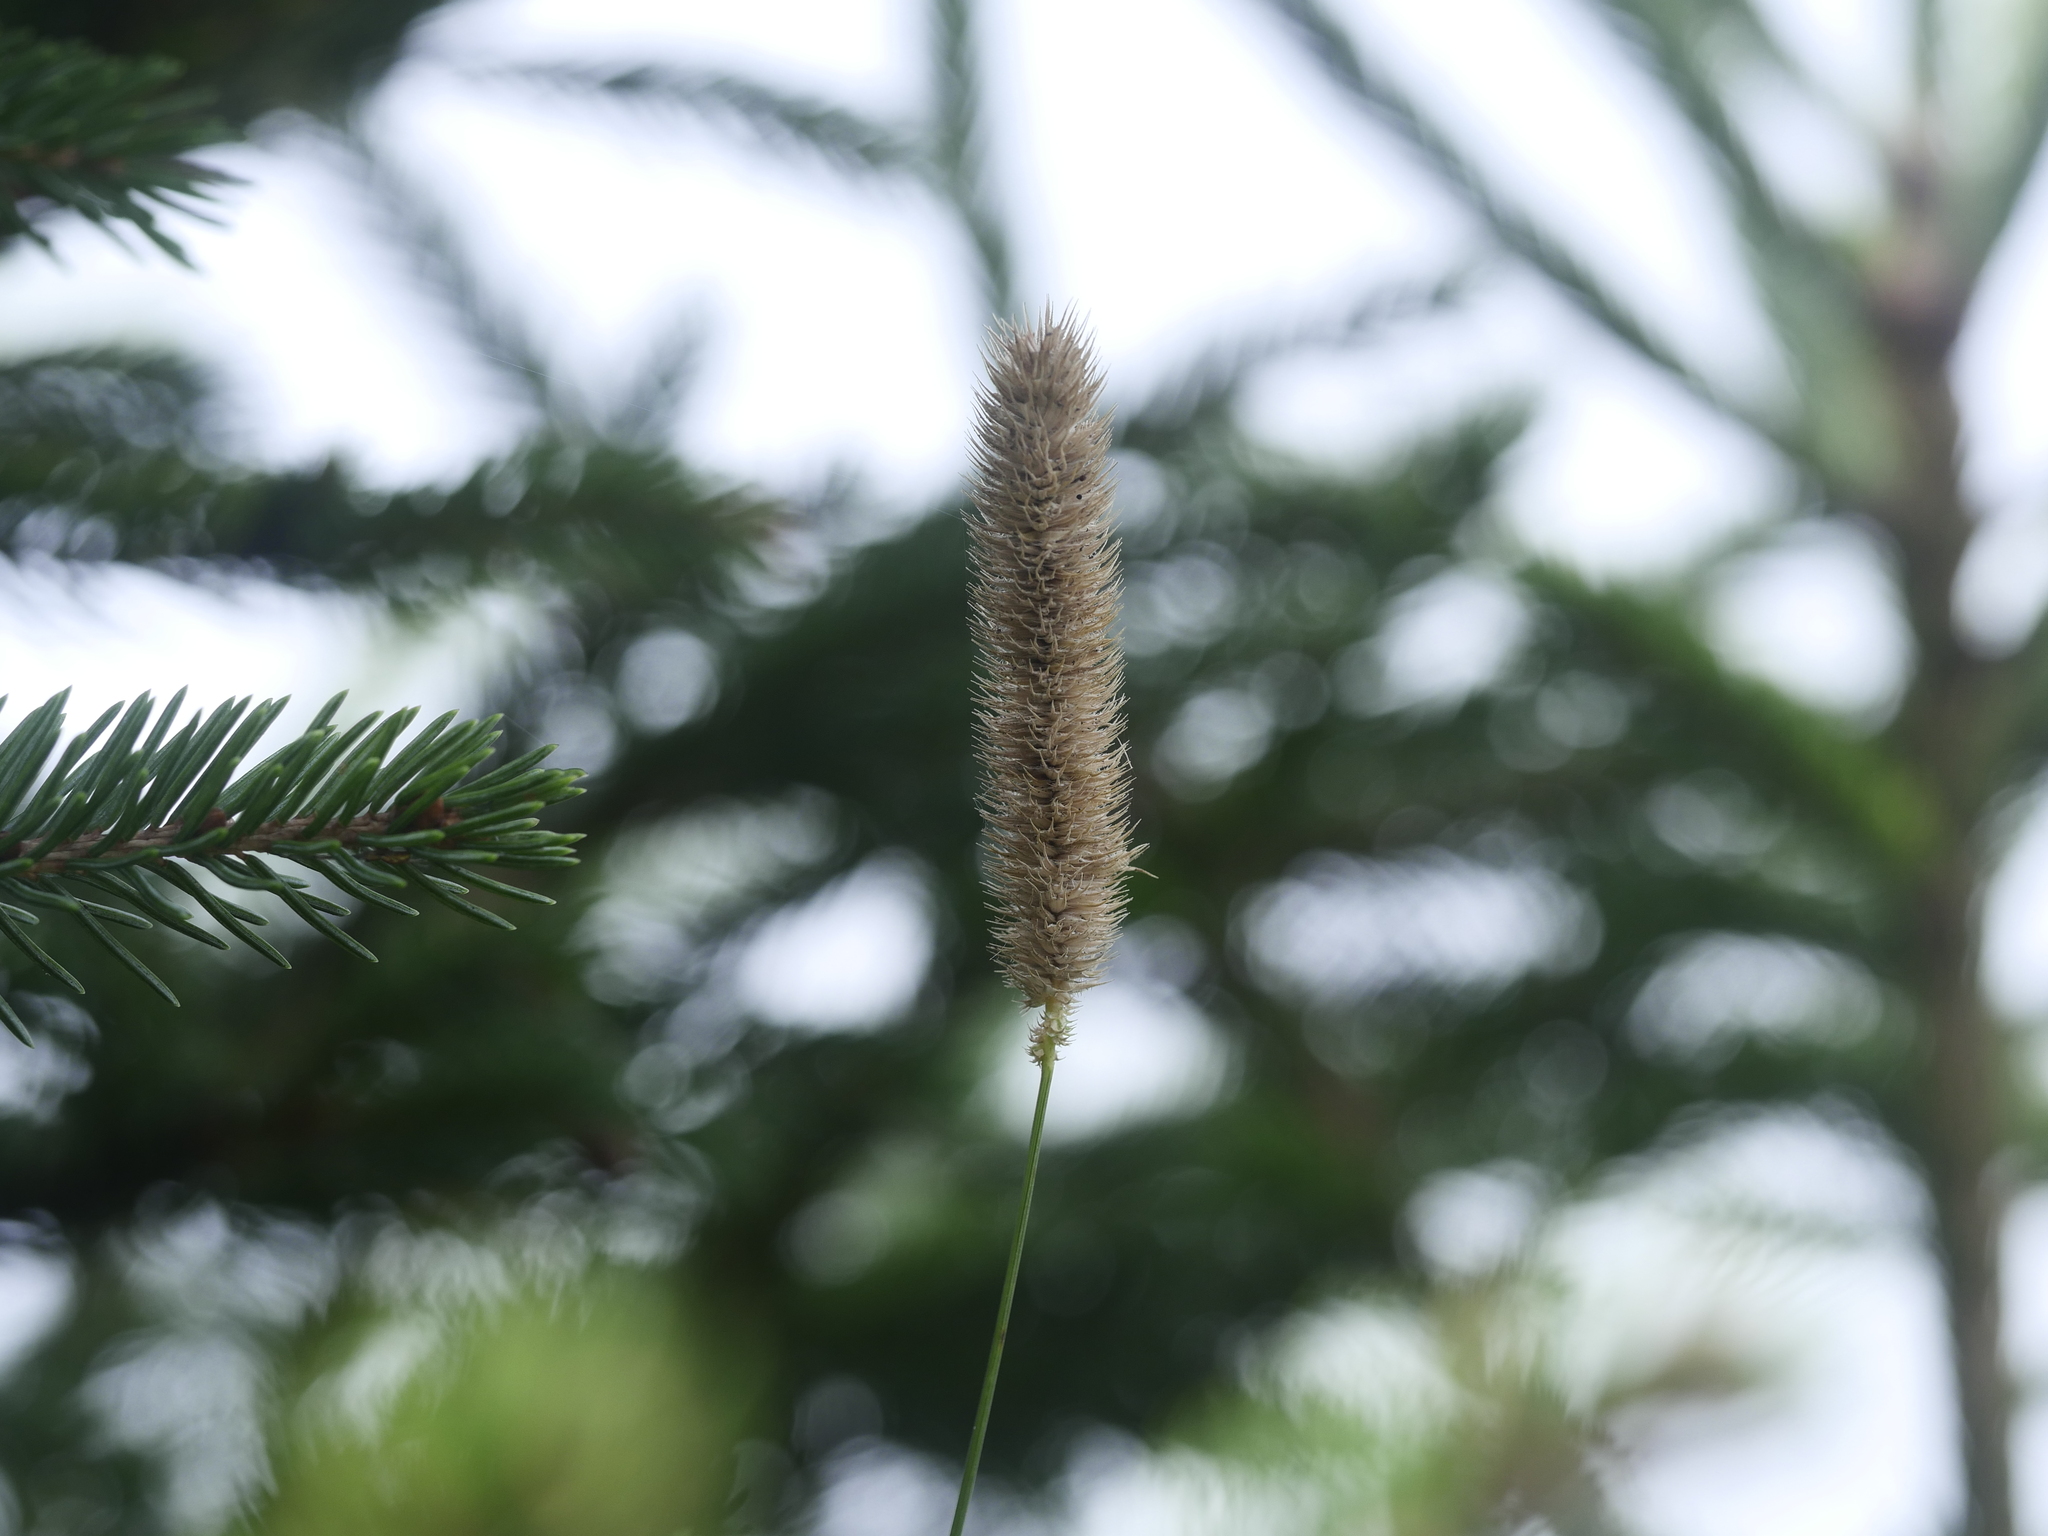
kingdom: Plantae
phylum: Tracheophyta
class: Liliopsida
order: Poales
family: Poaceae
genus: Phleum
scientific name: Phleum pratense
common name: Timothy grass
